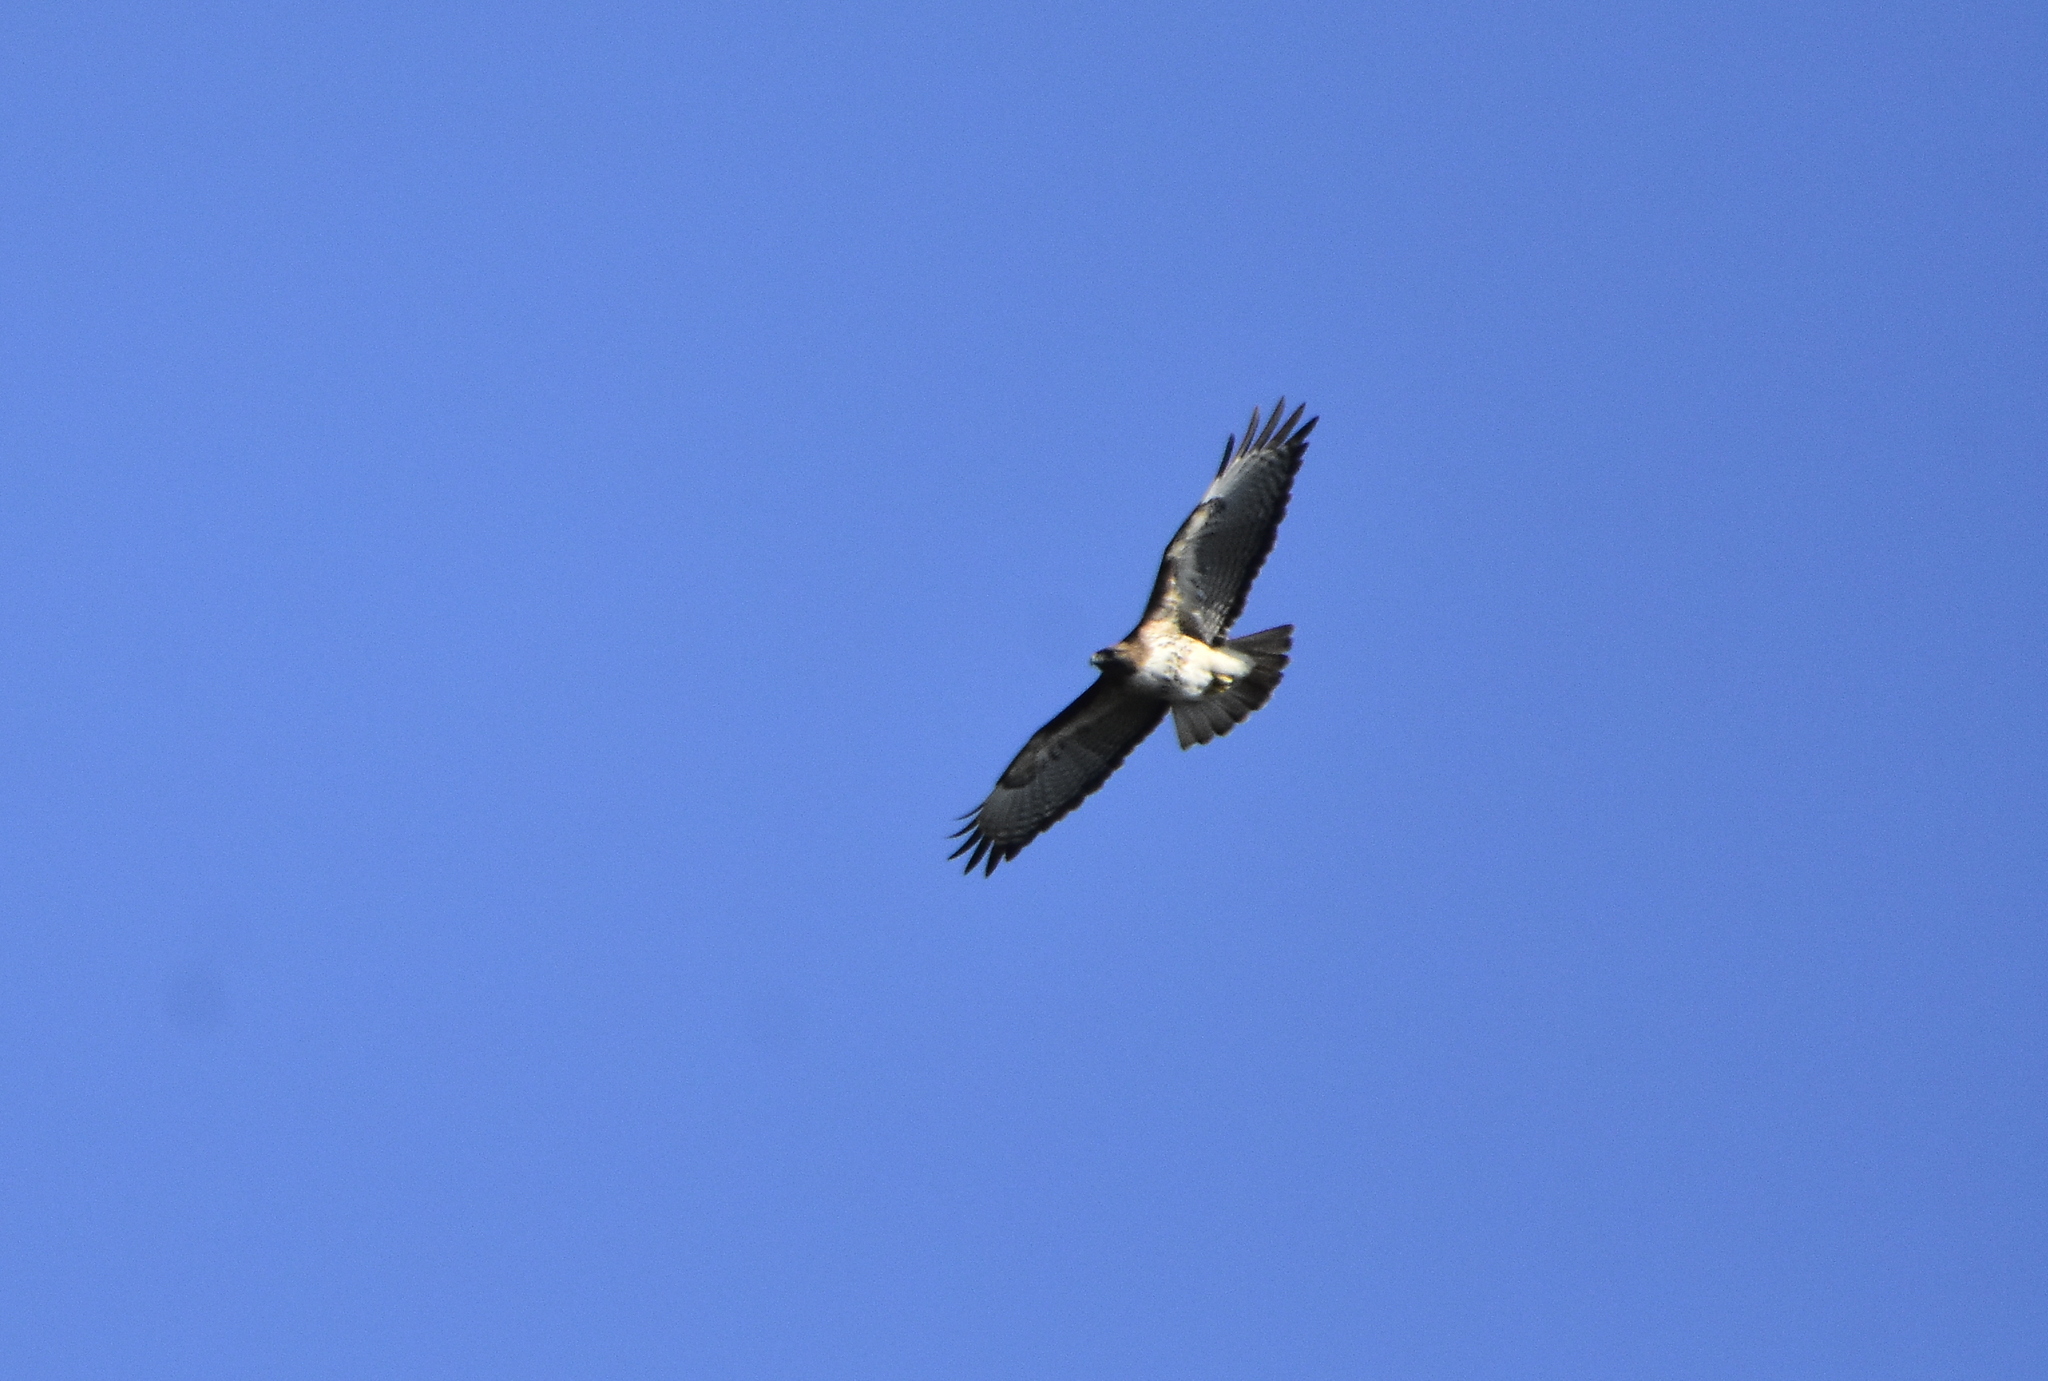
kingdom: Animalia
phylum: Chordata
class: Aves
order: Accipitriformes
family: Accipitridae
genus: Buteo
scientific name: Buteo jamaicensis
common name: Red-tailed hawk
